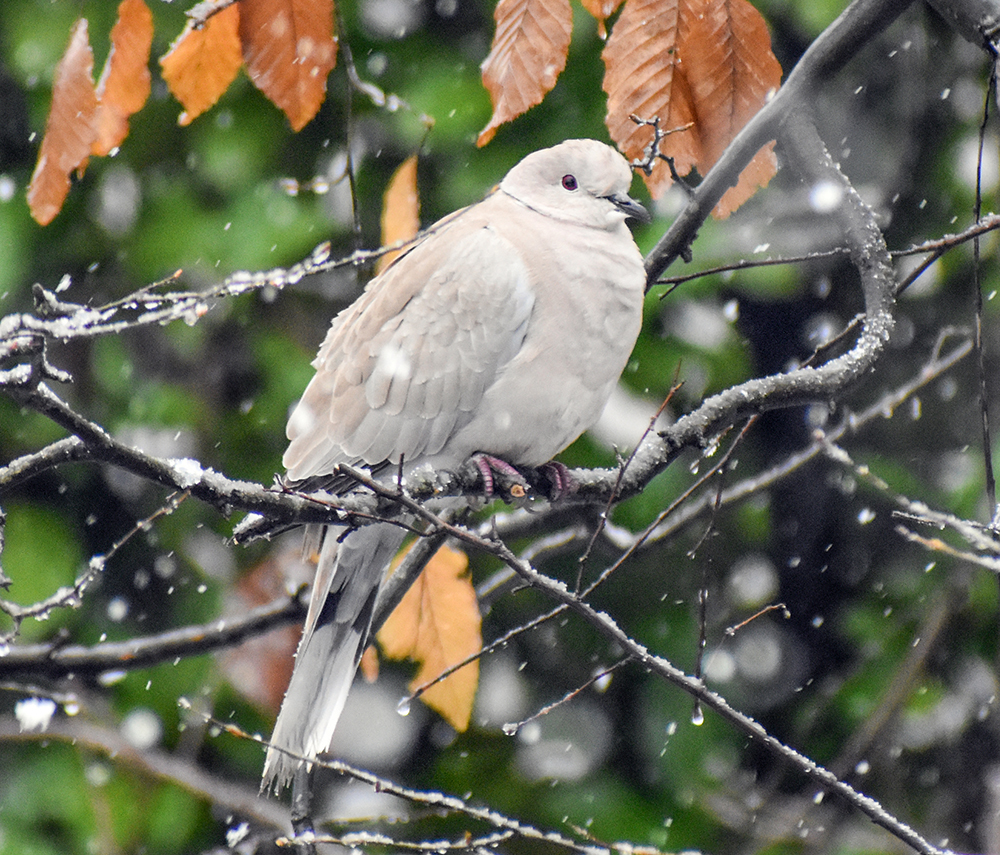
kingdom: Animalia
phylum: Chordata
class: Aves
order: Columbiformes
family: Columbidae
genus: Streptopelia
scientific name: Streptopelia decaocto
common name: Eurasian collared dove
